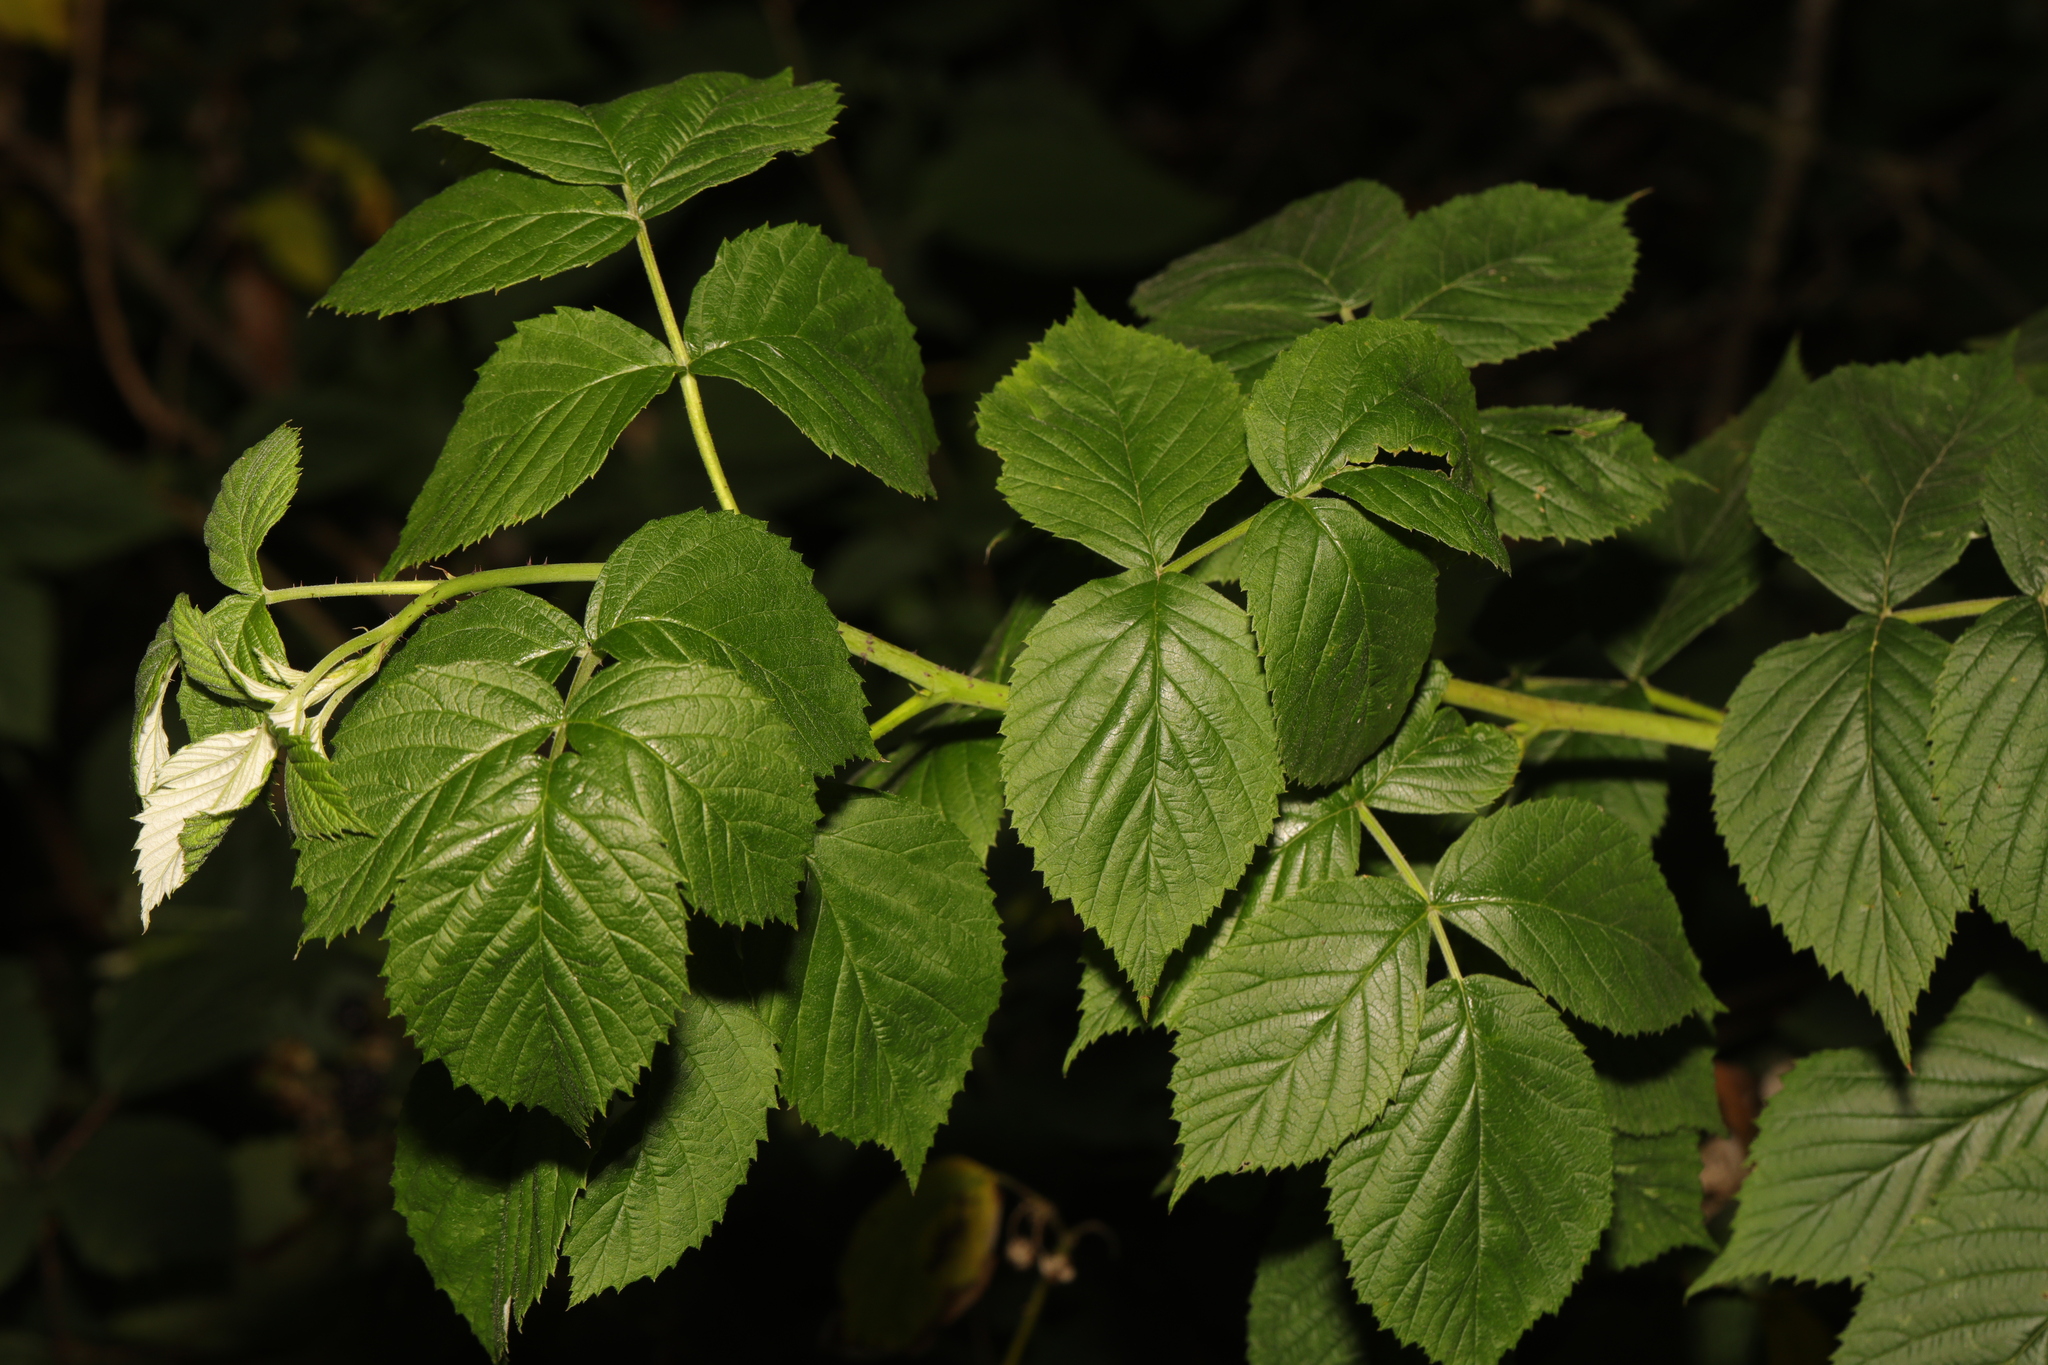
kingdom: Plantae
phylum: Tracheophyta
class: Magnoliopsida
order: Rosales
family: Rosaceae
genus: Rubus
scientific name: Rubus idaeus
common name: Raspberry
